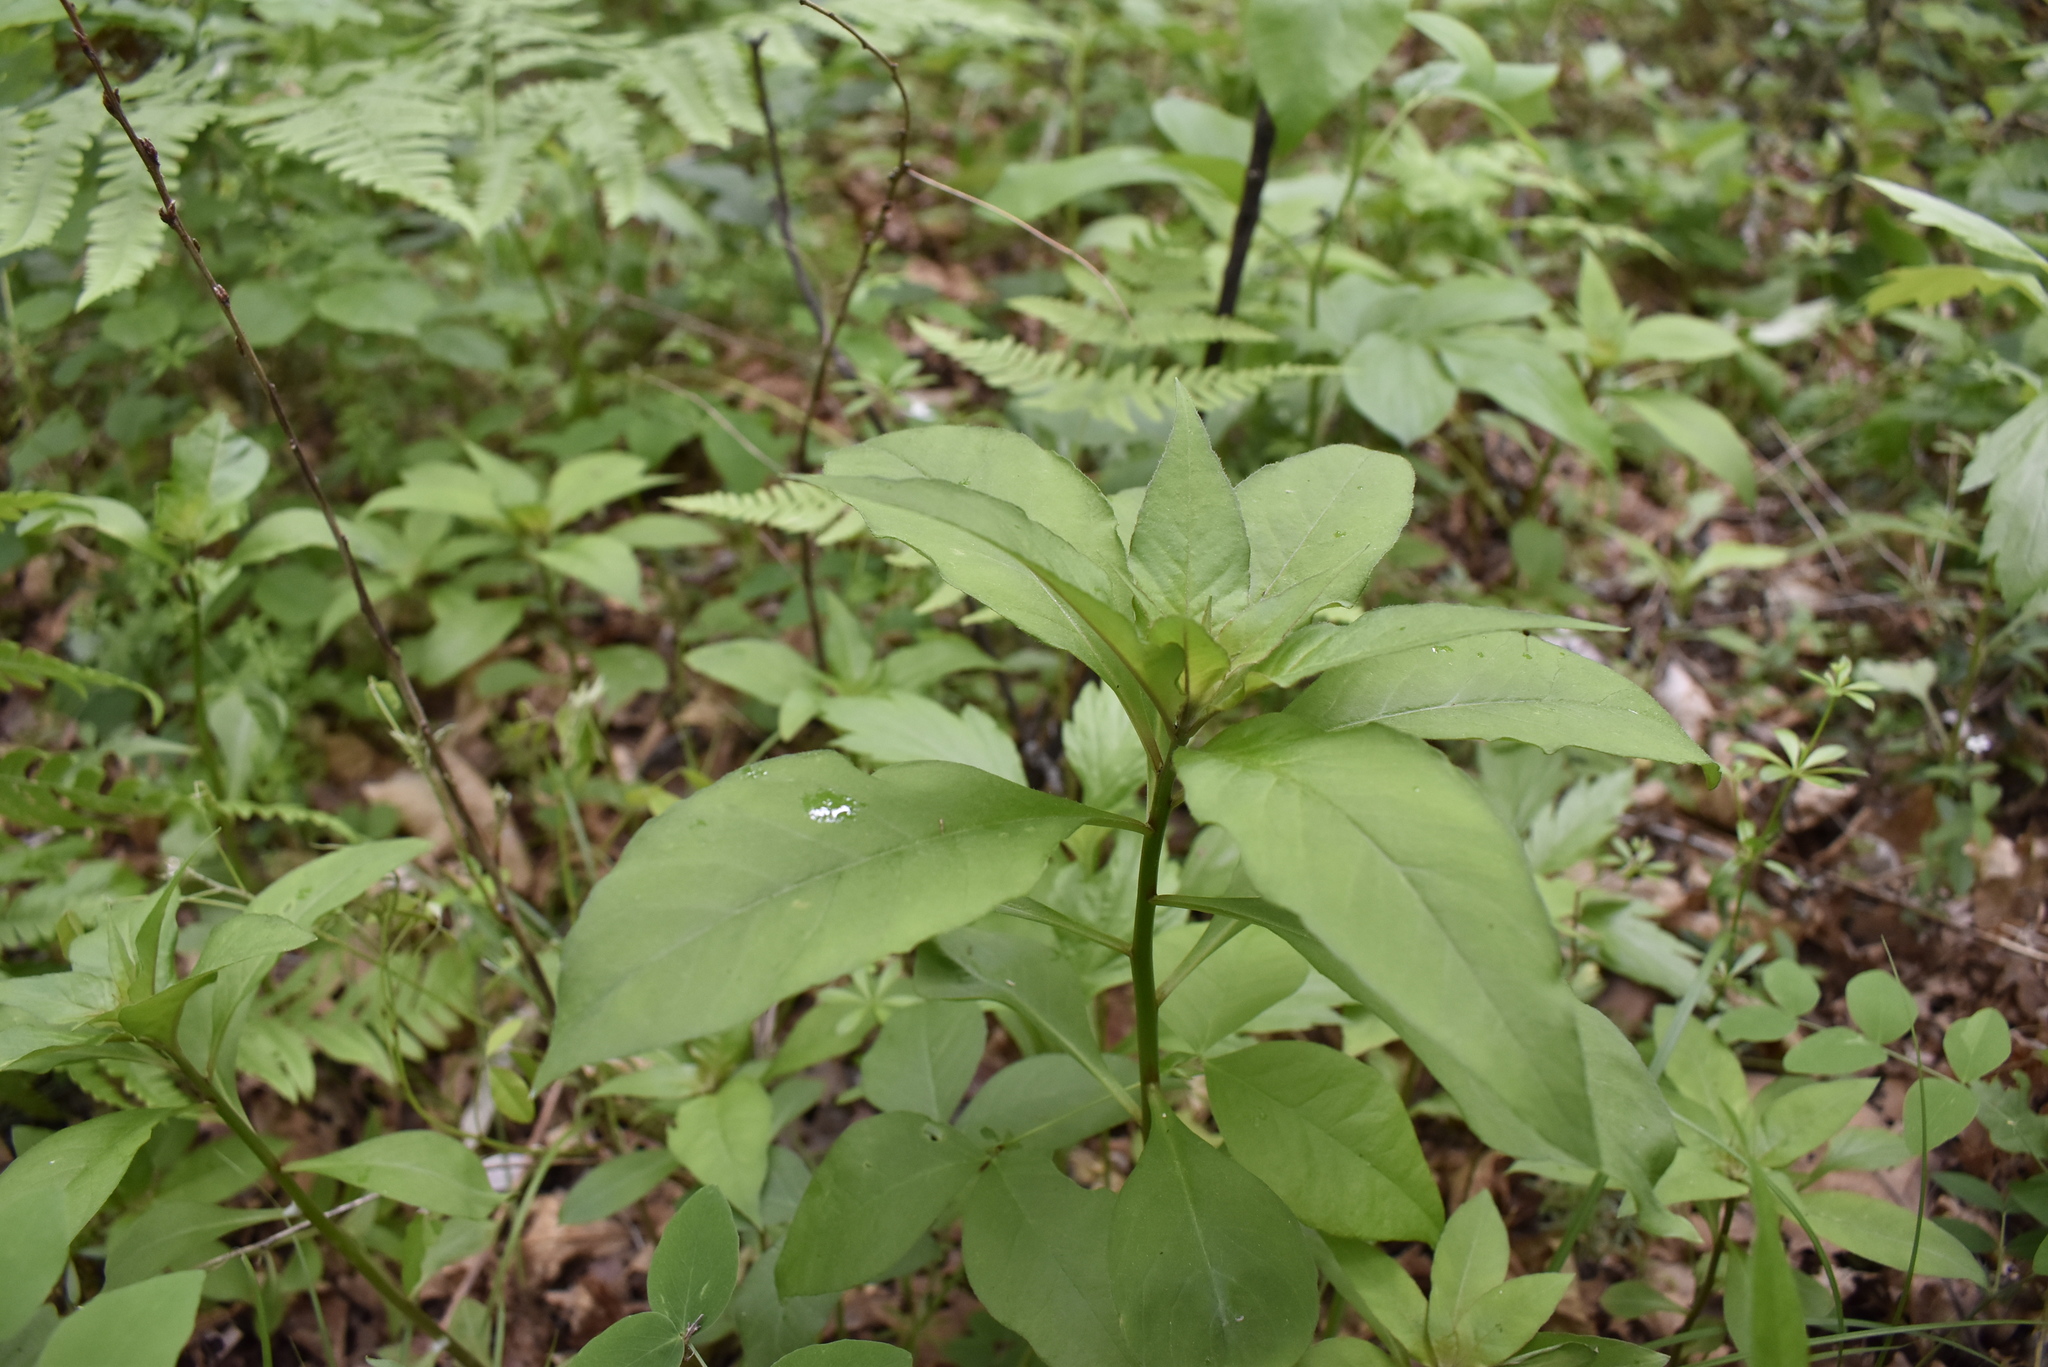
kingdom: Plantae
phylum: Tracheophyta
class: Magnoliopsida
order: Ericales
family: Primulaceae
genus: Lysimachia
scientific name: Lysimachia clethroides
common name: Gooseneck loosestrife
